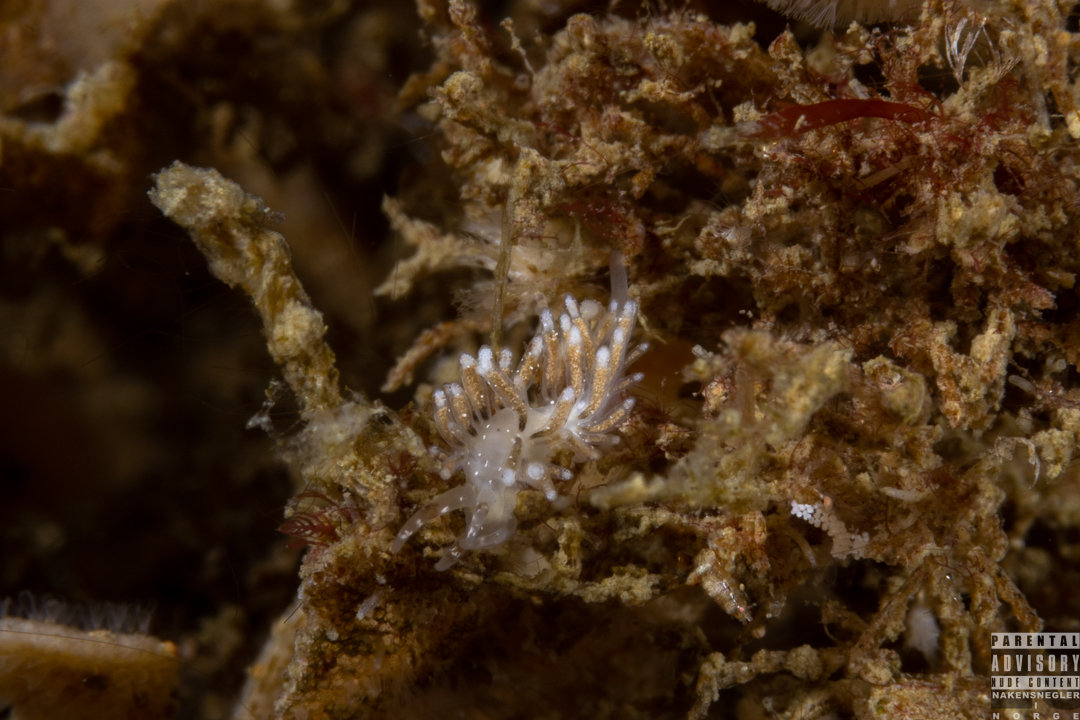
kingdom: Animalia
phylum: Mollusca
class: Gastropoda
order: Nudibranchia
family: Trinchesiidae
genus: Rubramoena
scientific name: Rubramoena amoena
